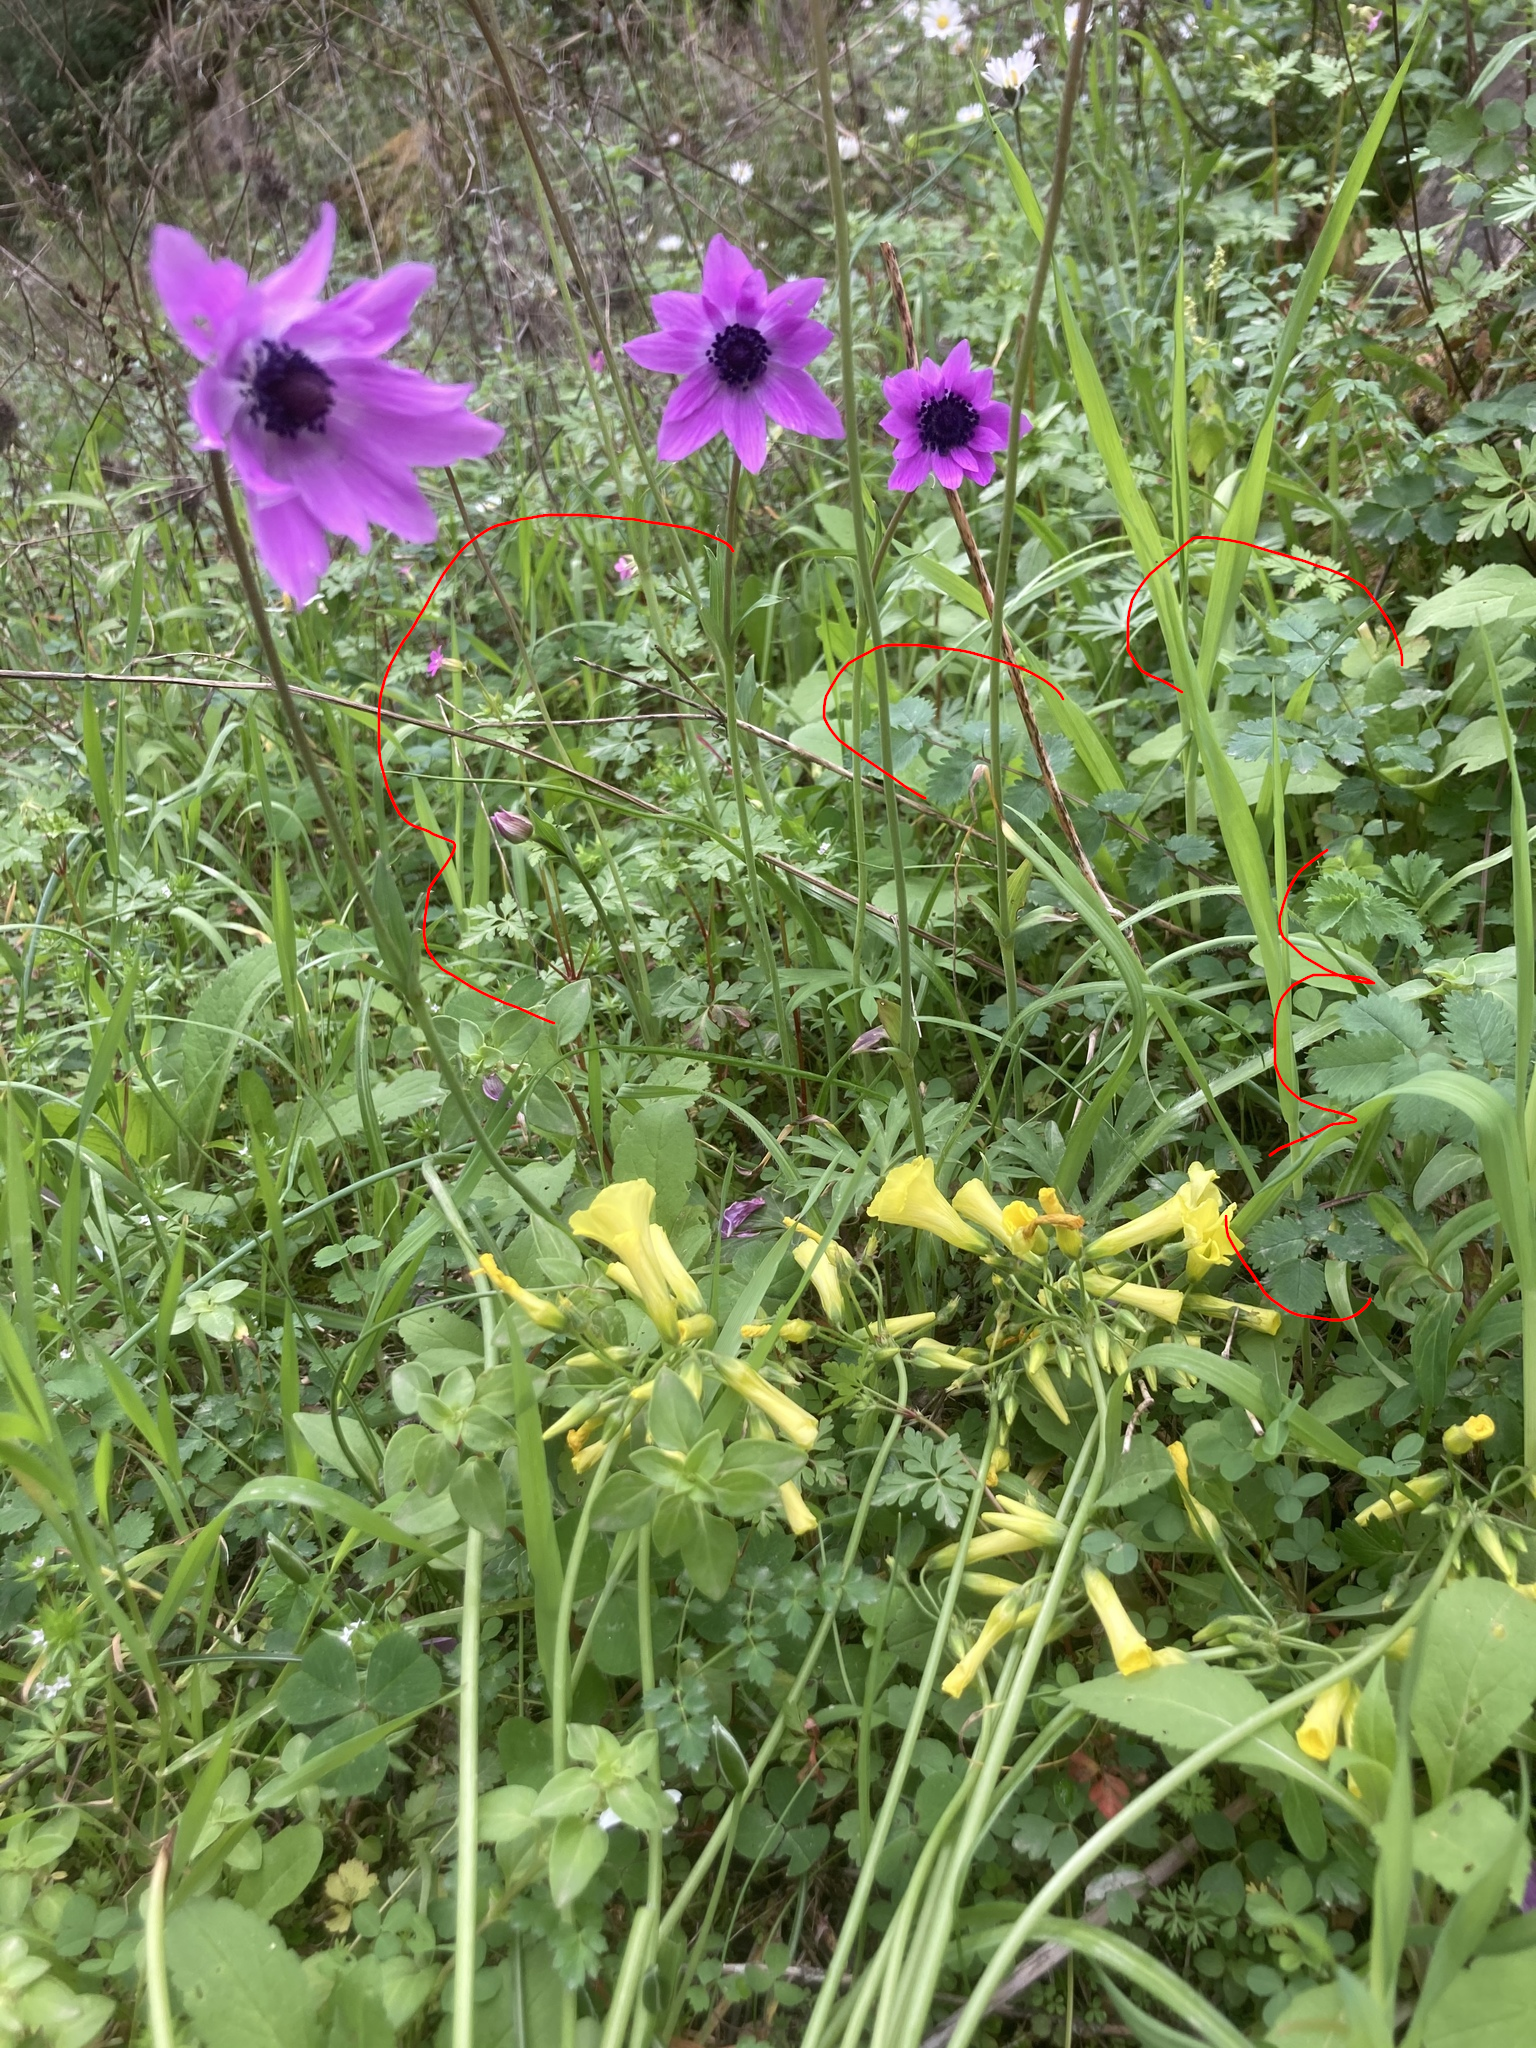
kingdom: Plantae
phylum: Tracheophyta
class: Magnoliopsida
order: Geraniales
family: Geraniaceae
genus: Geranium
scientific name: Geranium robertianum
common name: Herb-robert
